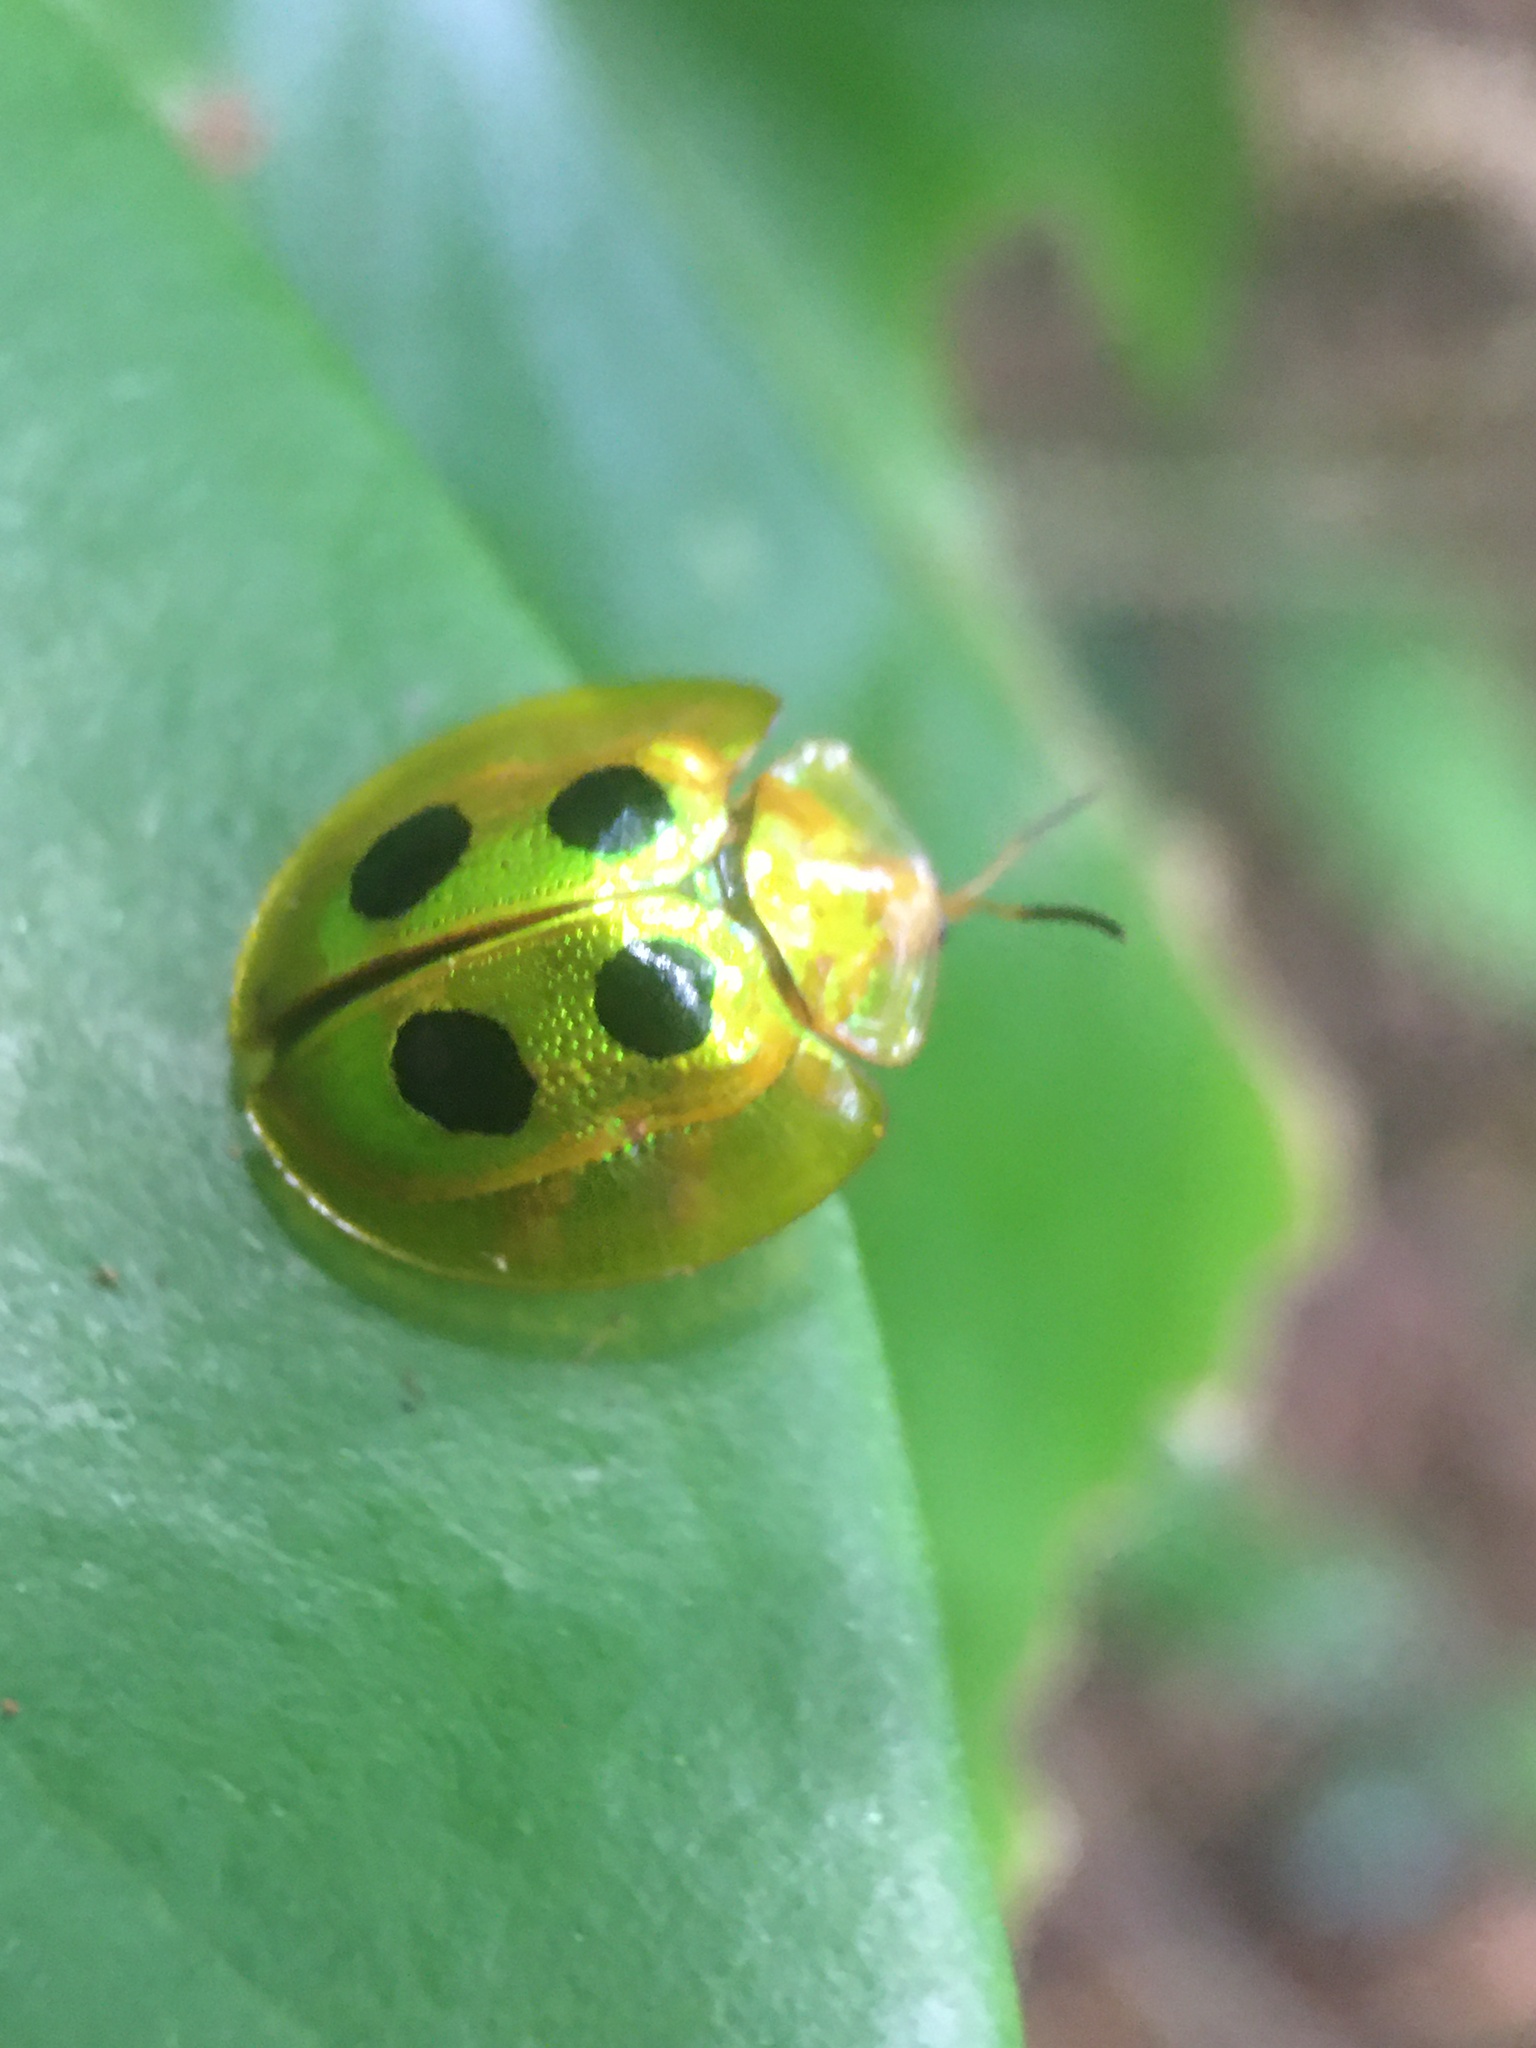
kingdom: Animalia
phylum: Arthropoda
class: Insecta
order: Coleoptera
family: Chrysomelidae
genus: Coptocycla
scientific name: Coptocycla roseocincta
